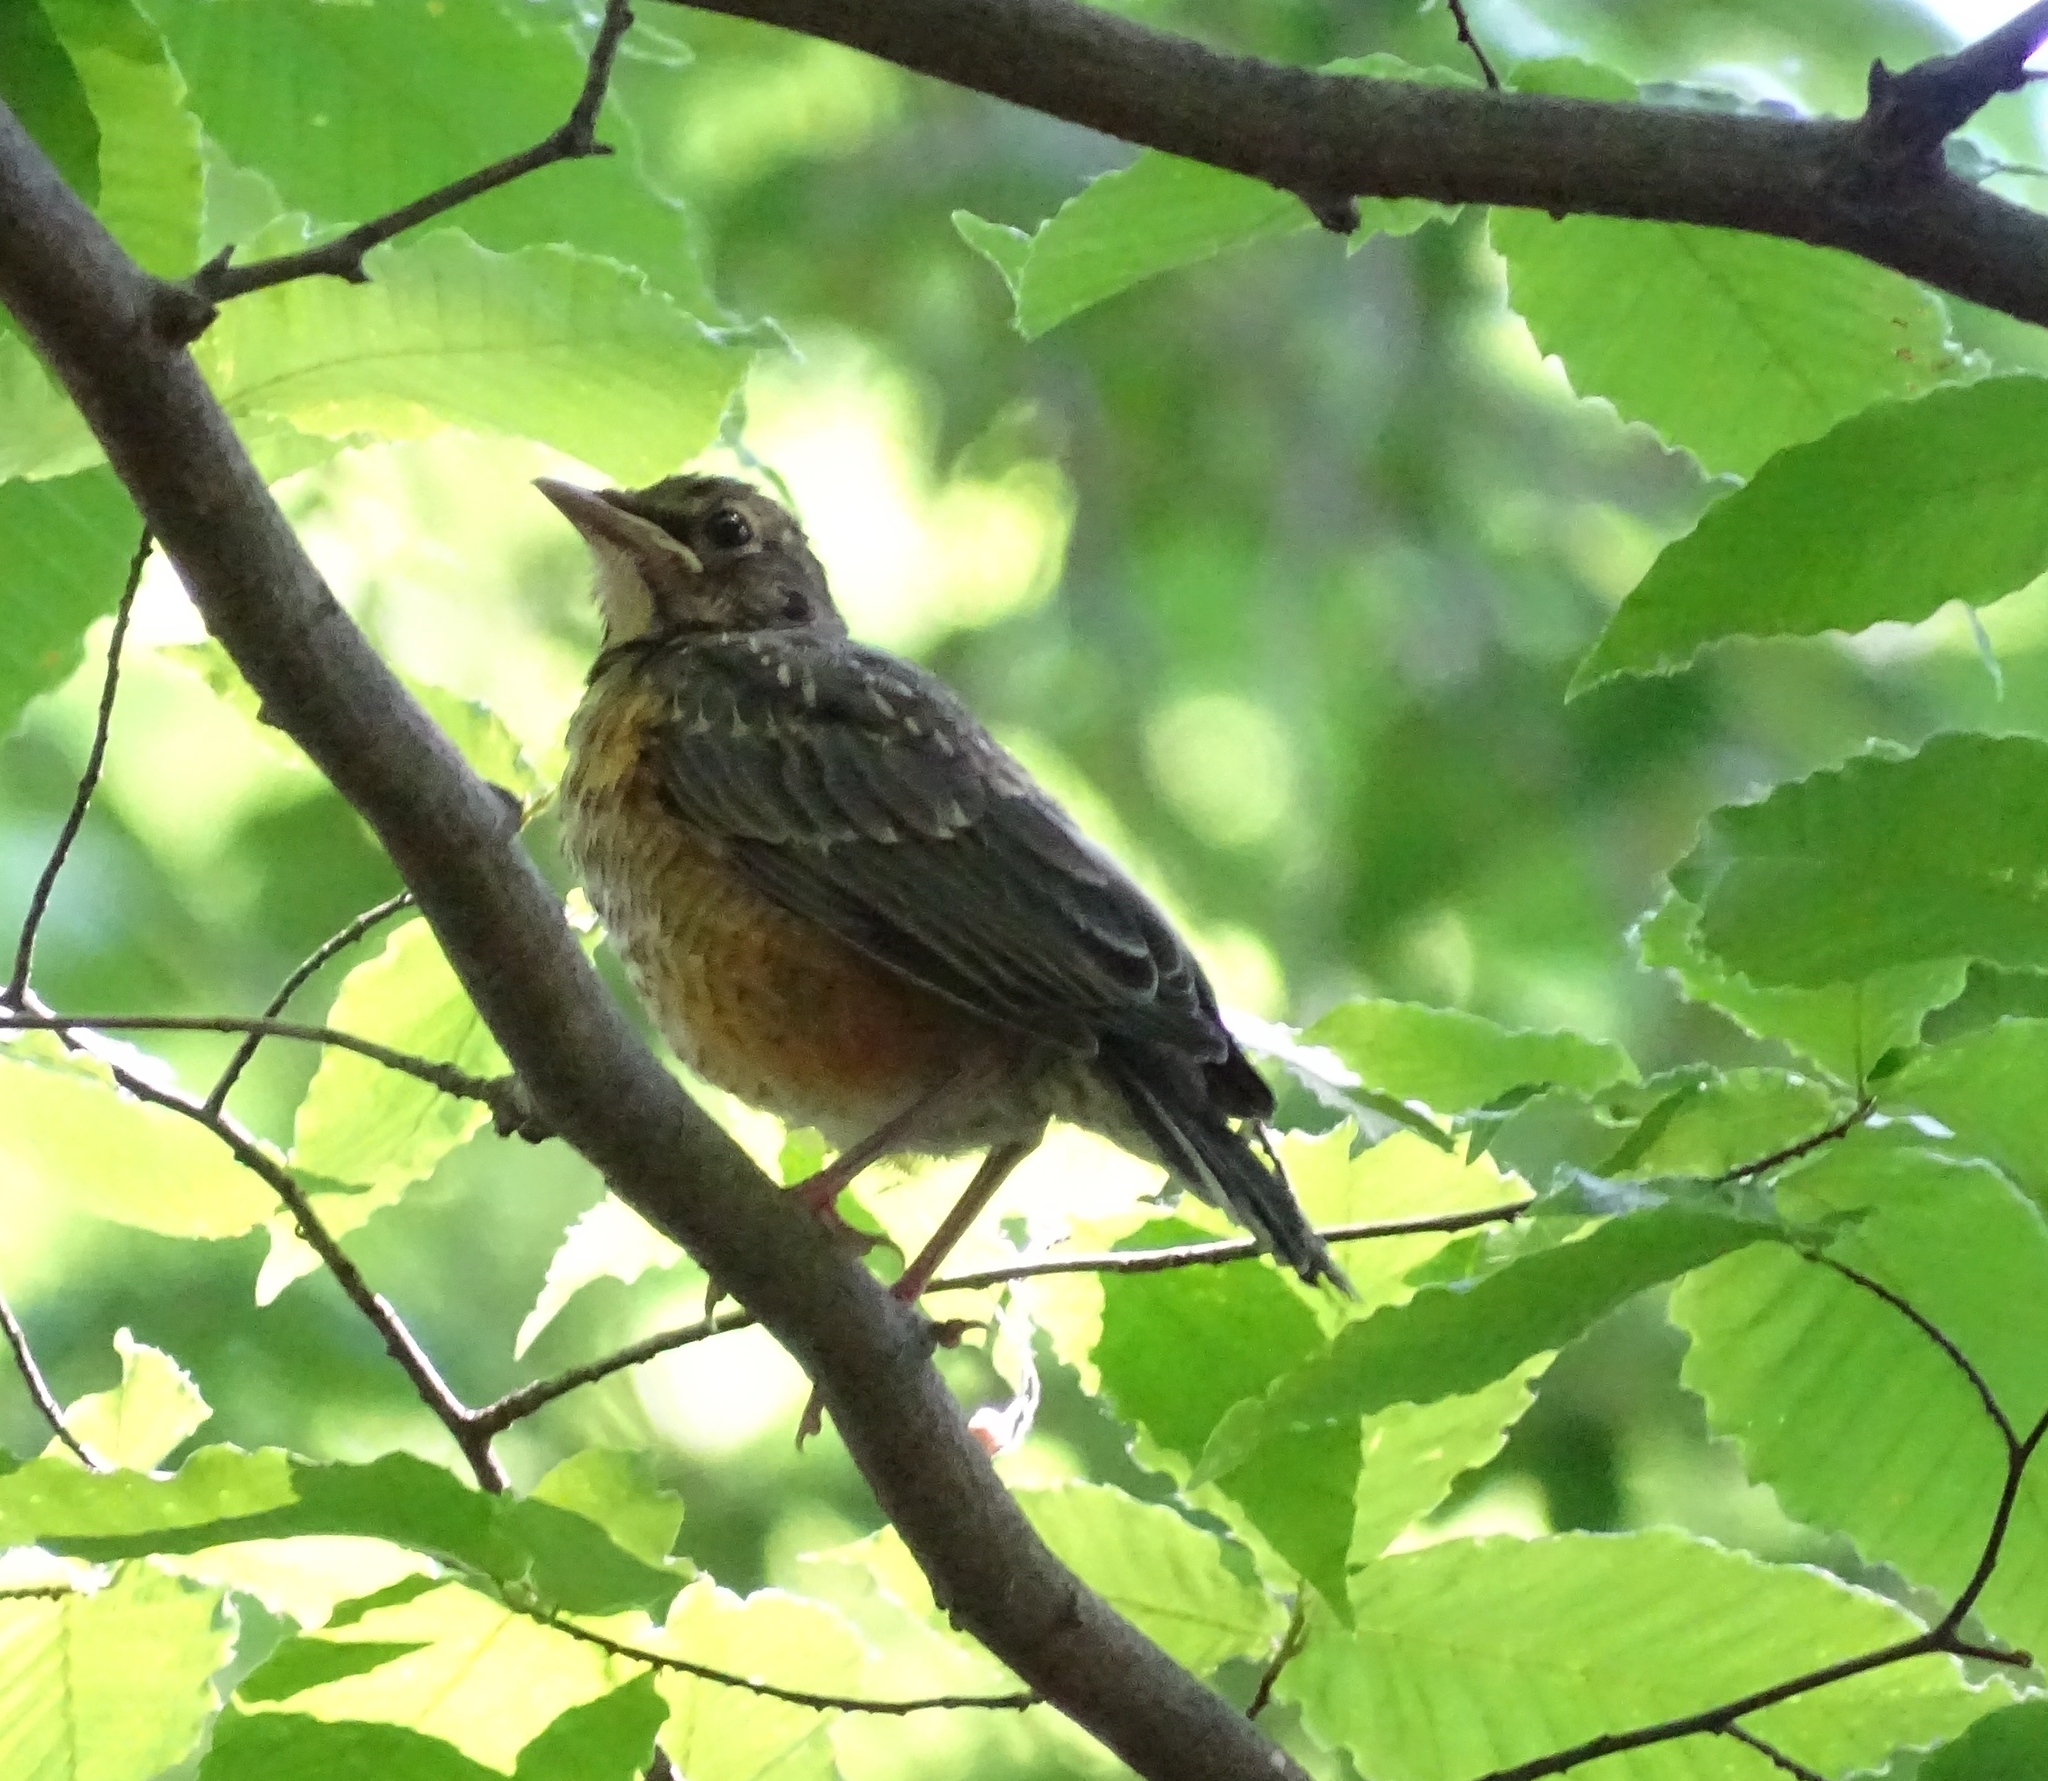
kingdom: Animalia
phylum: Chordata
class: Aves
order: Passeriformes
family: Turdidae
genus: Turdus
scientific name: Turdus migratorius
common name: American robin
